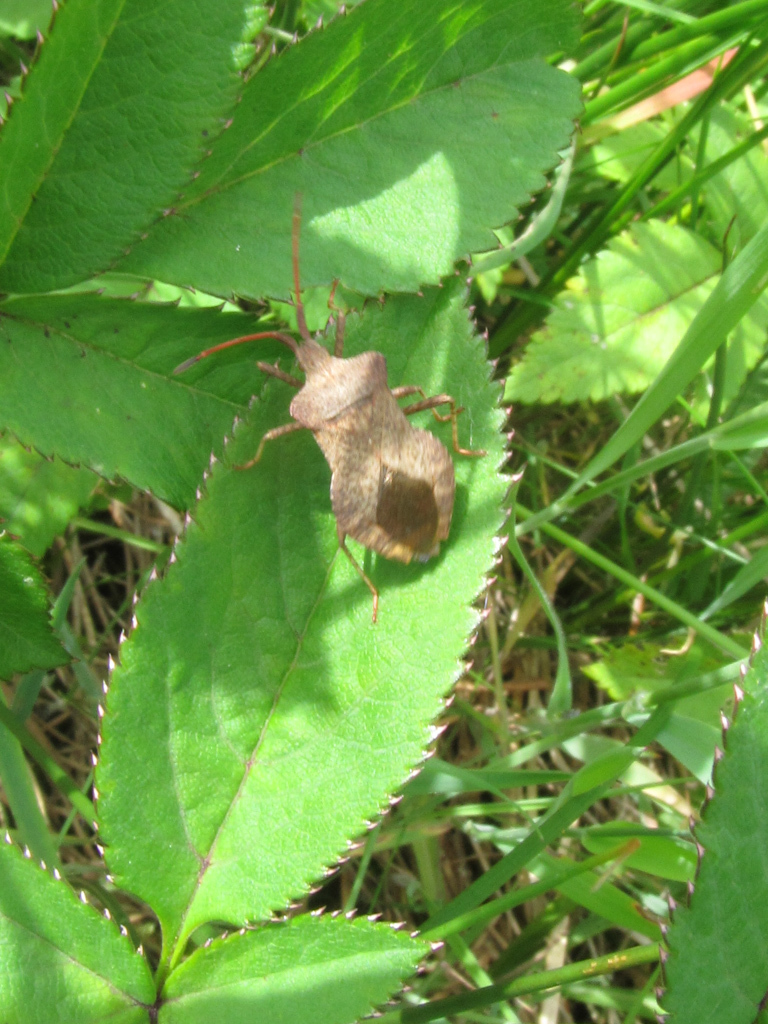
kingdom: Animalia
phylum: Arthropoda
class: Insecta
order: Hemiptera
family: Coreidae
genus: Coreus
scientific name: Coreus marginatus
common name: Dock bug
